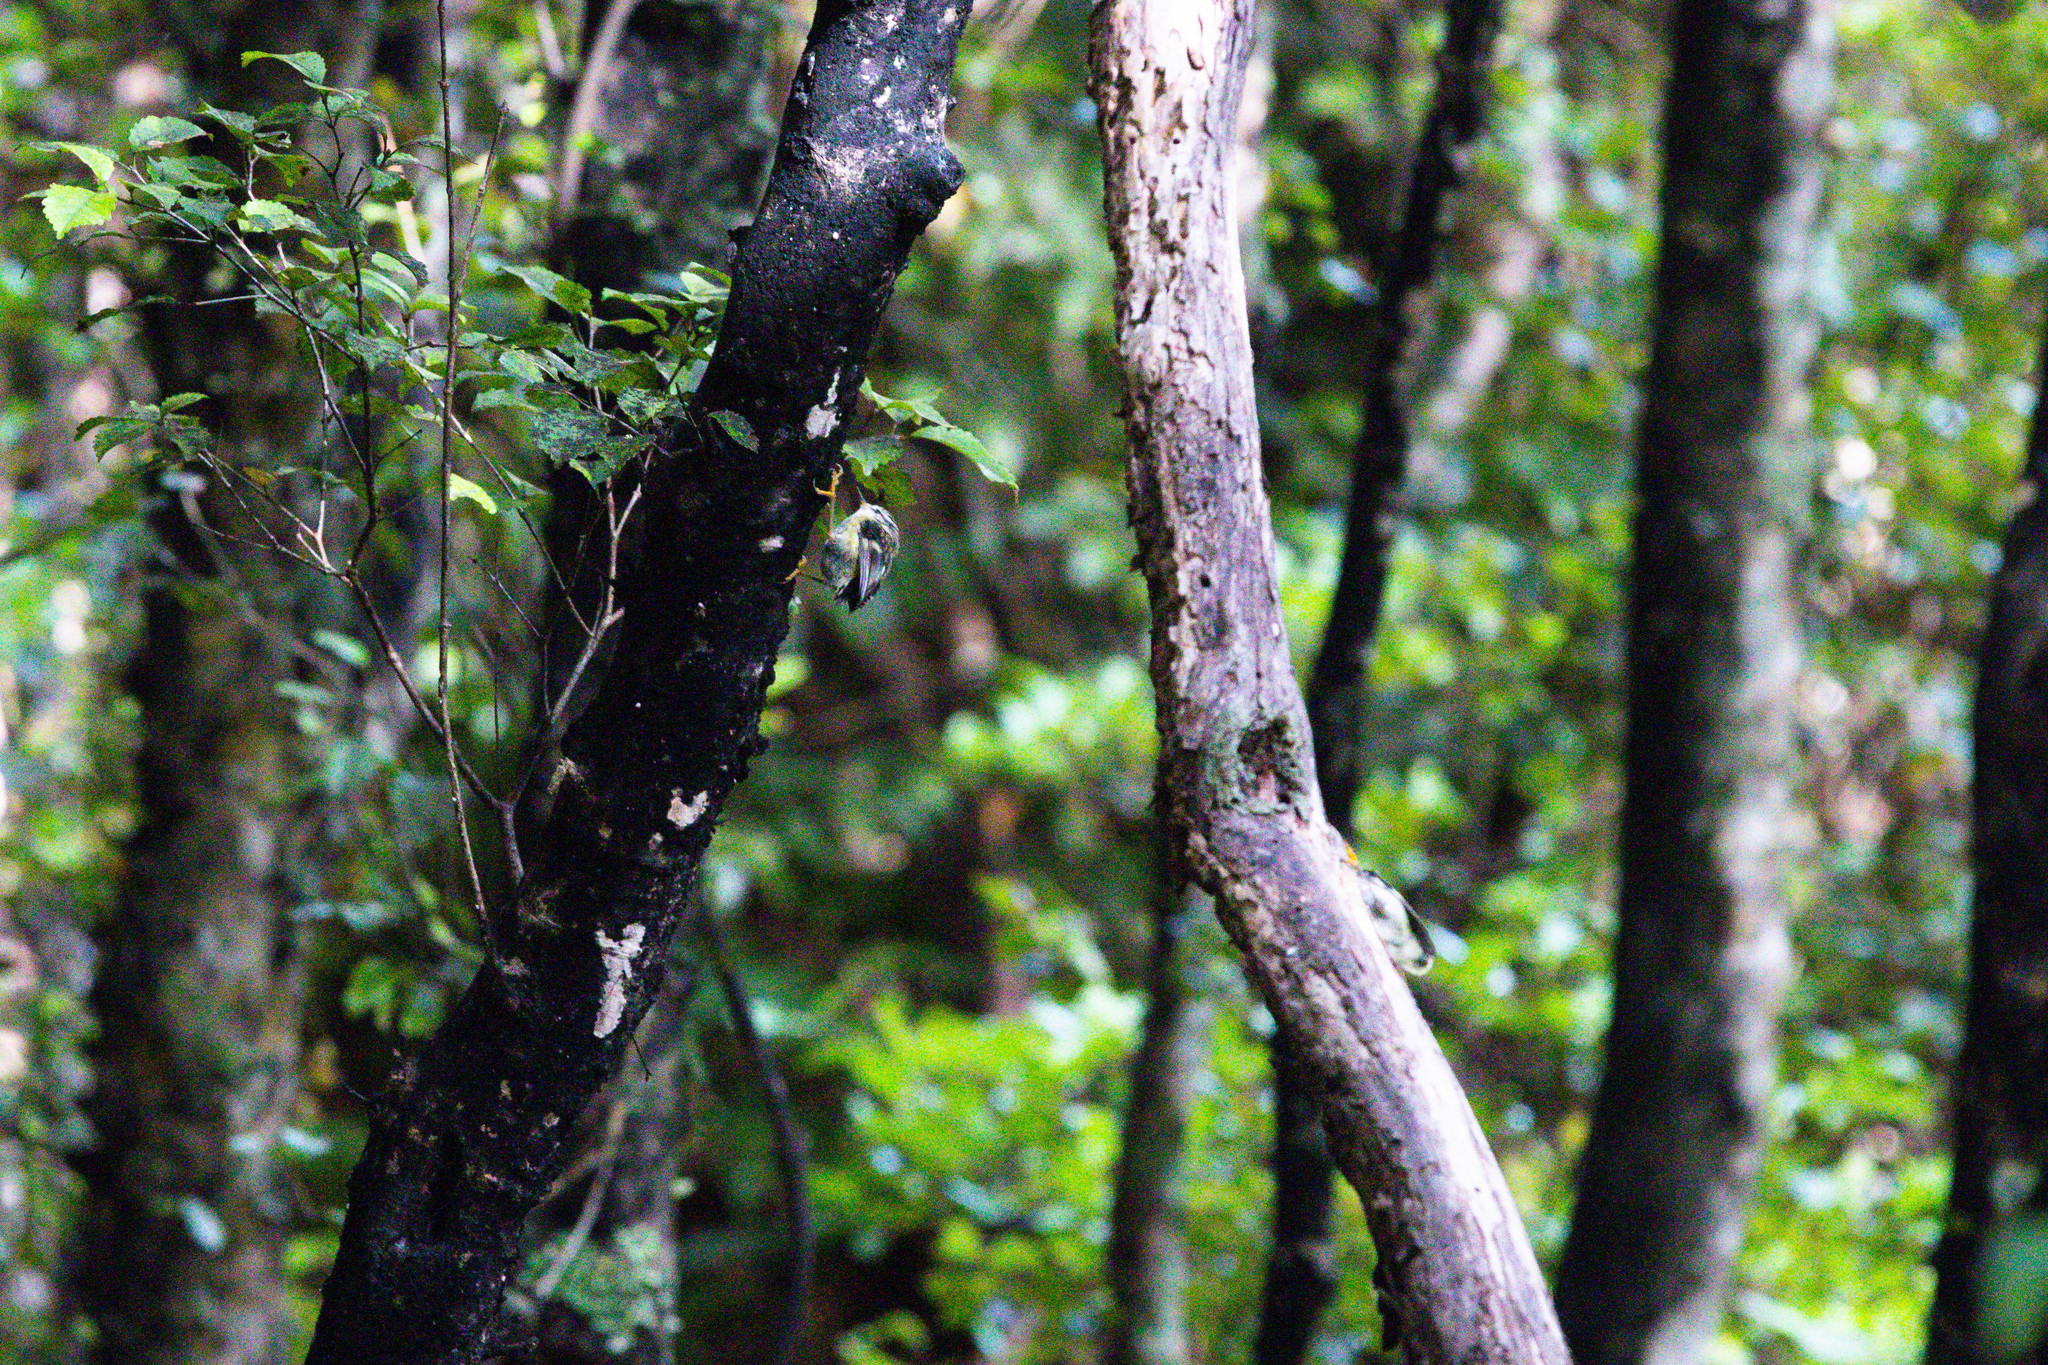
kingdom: Animalia
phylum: Chordata
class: Aves
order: Passeriformes
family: Acanthisittidae
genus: Acanthisitta
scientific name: Acanthisitta chloris
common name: Rifleman
